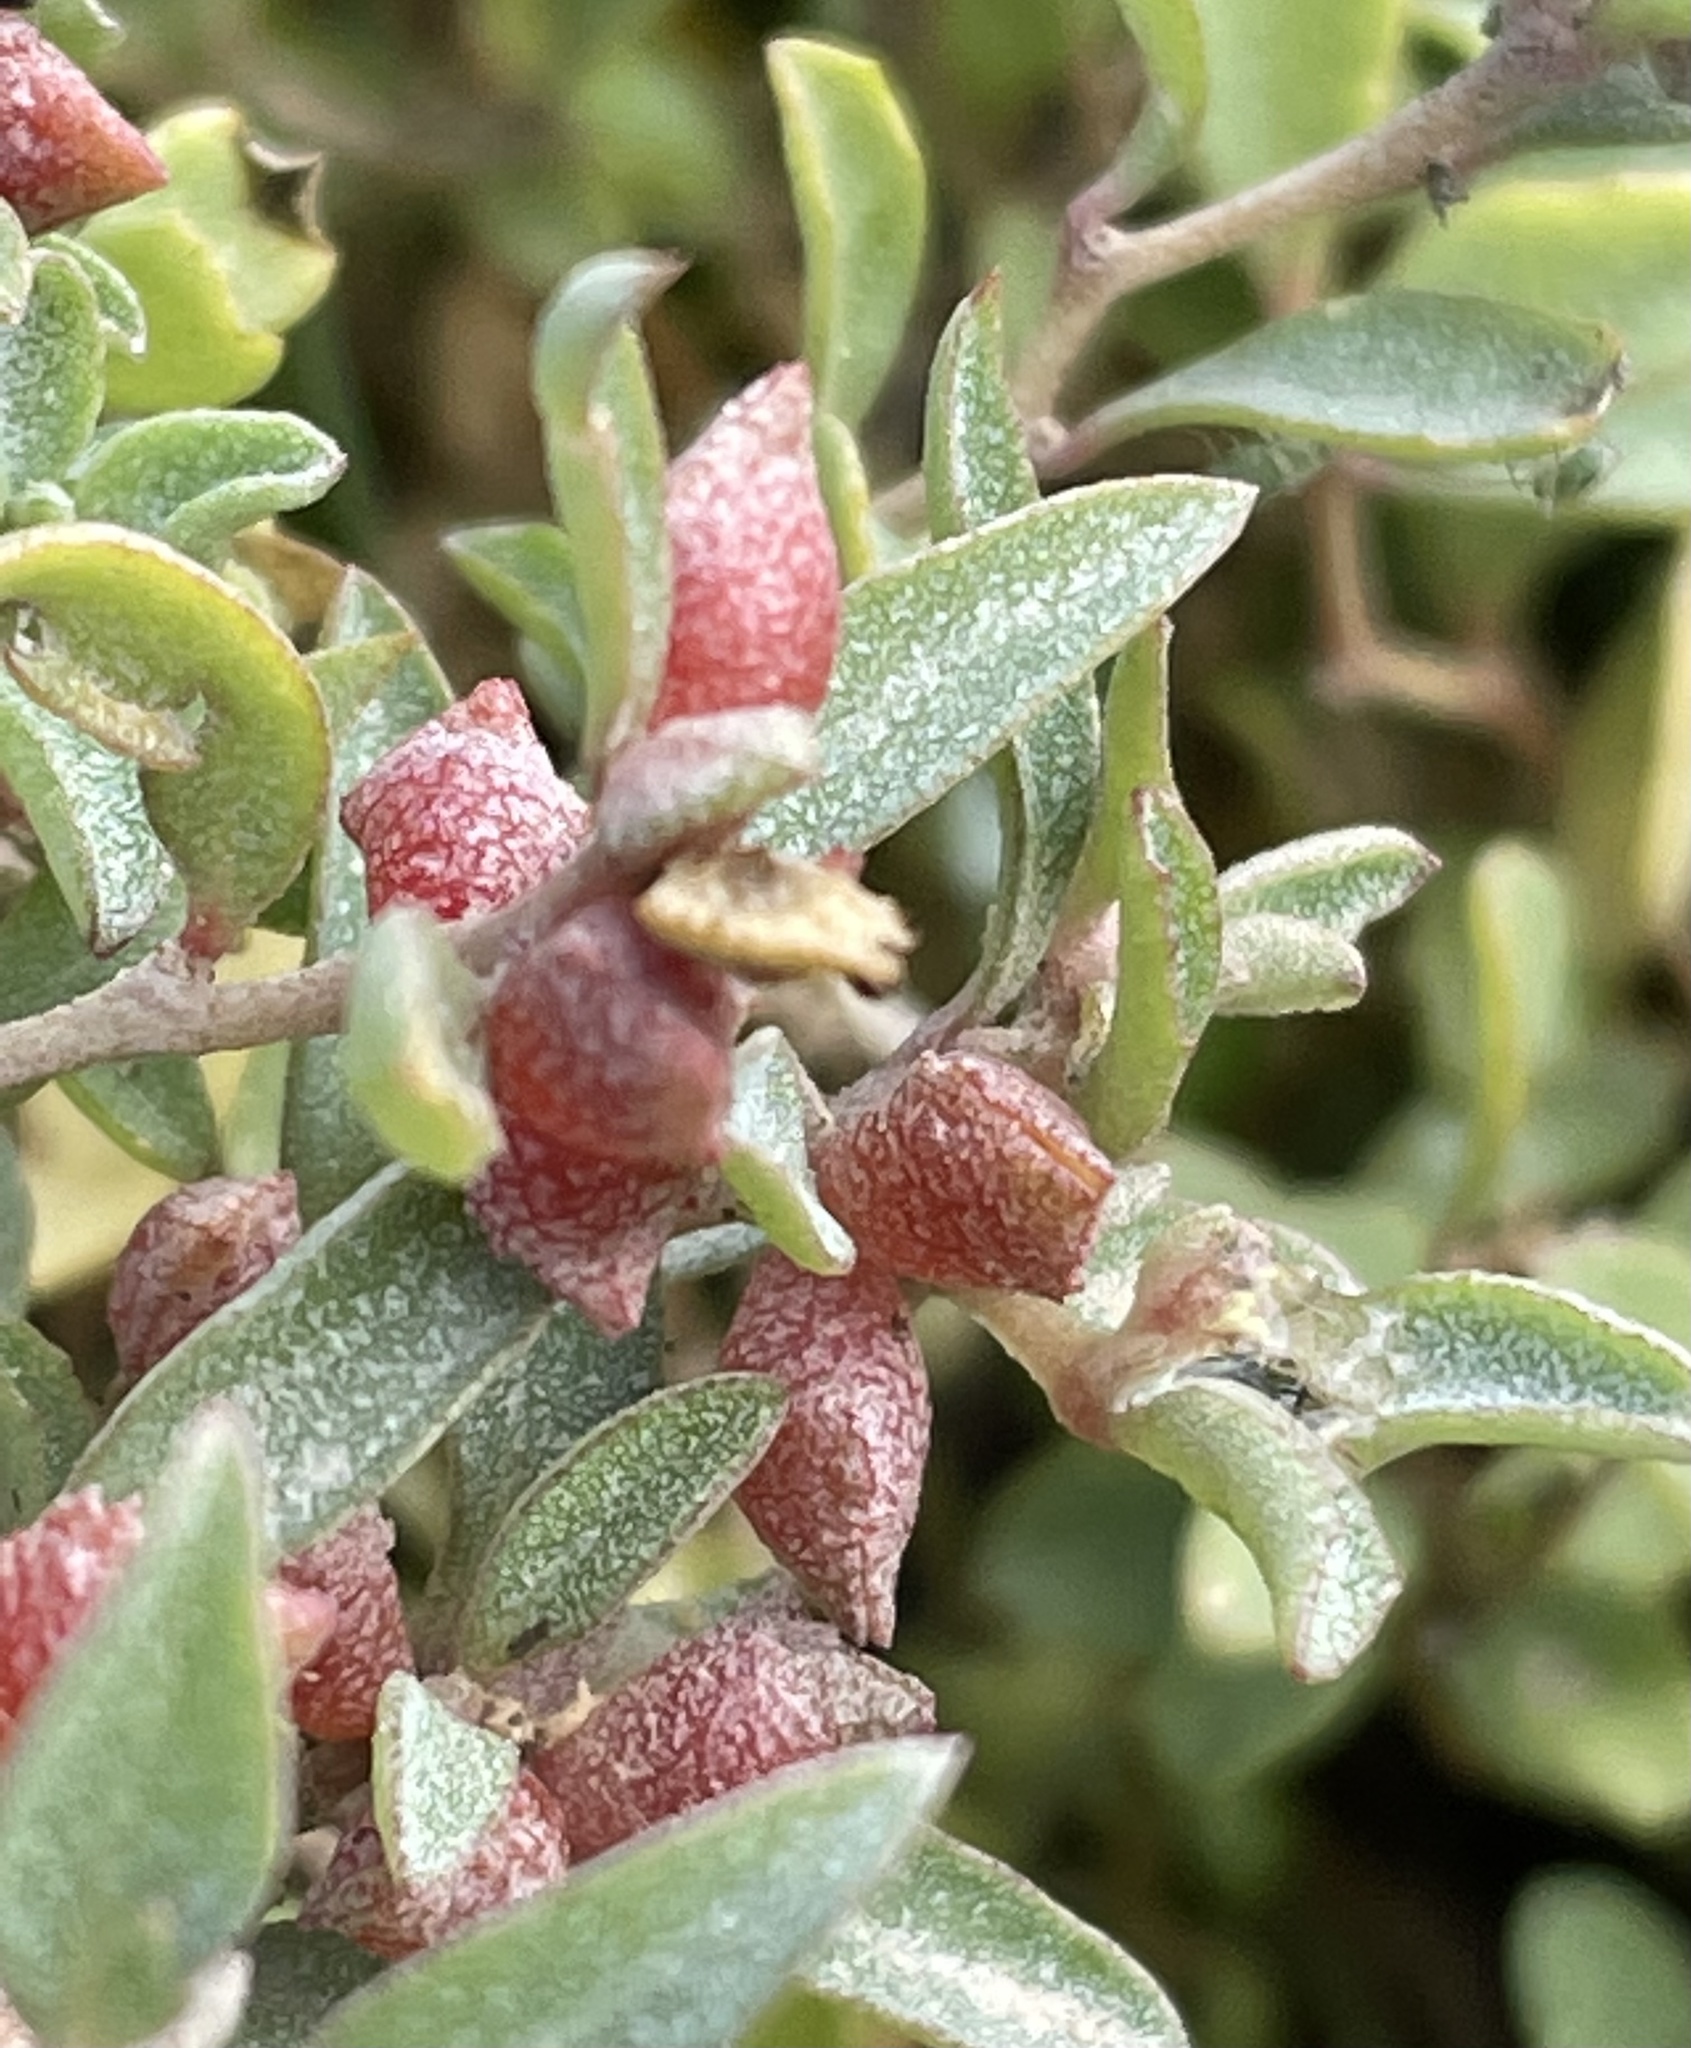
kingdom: Plantae
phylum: Tracheophyta
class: Magnoliopsida
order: Caryophyllales
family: Amaranthaceae
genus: Atriplex
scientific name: Atriplex semibaccata
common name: Australian saltbush
